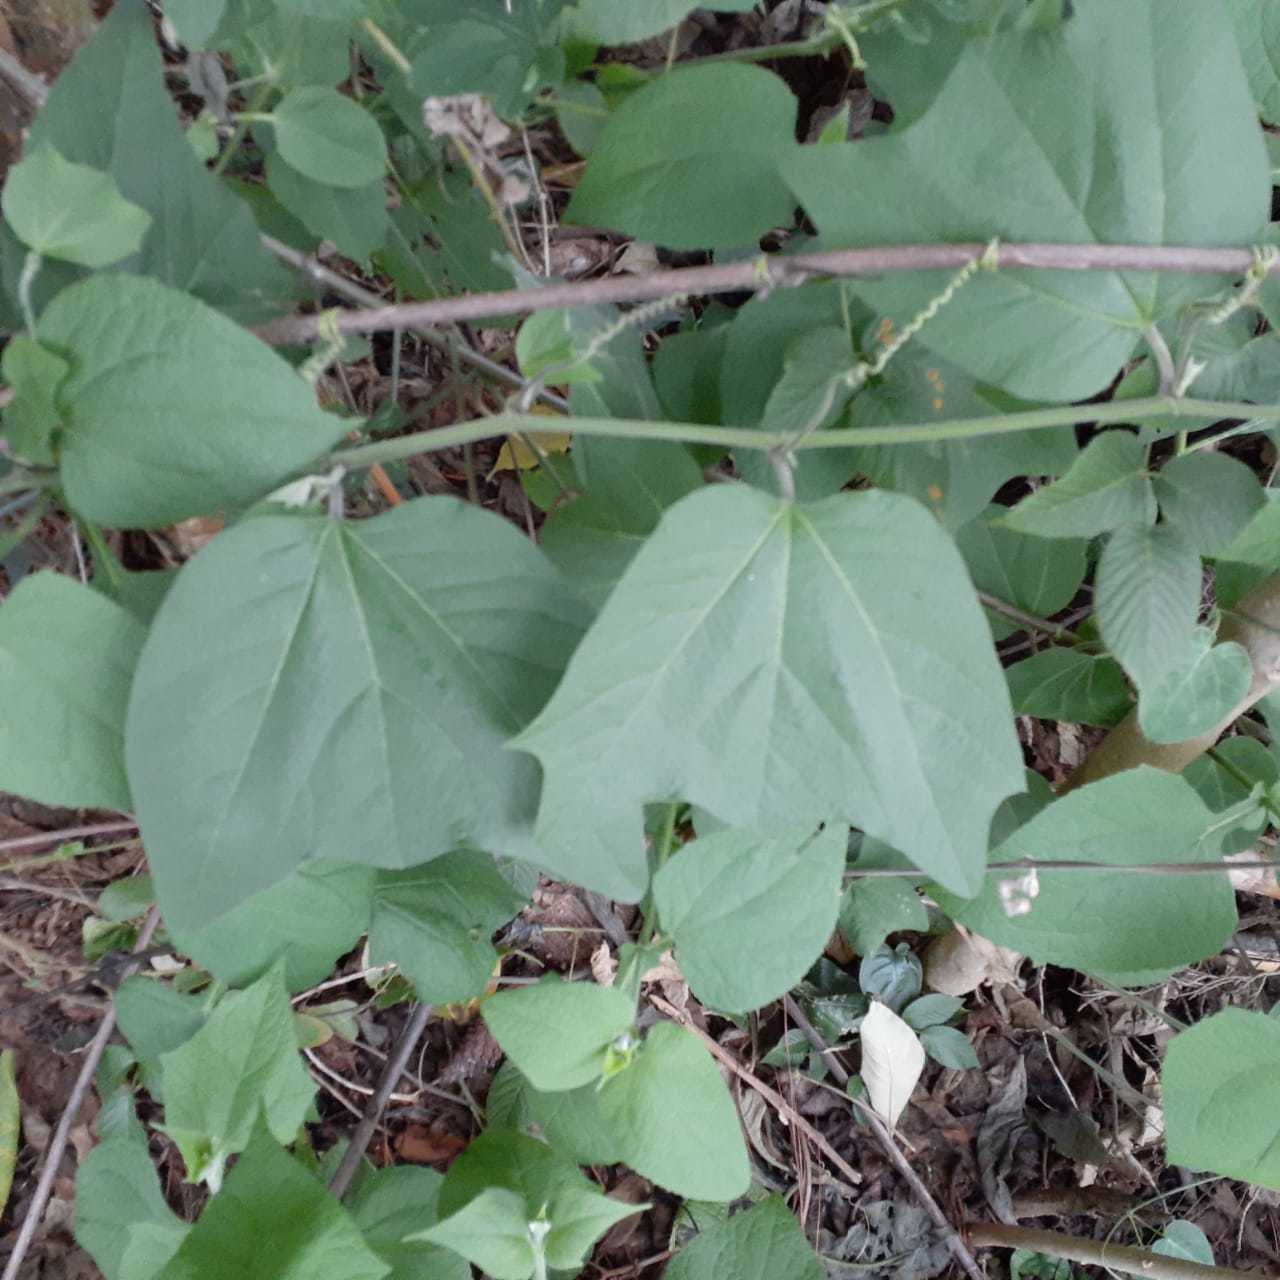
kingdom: Plantae
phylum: Tracheophyta
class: Magnoliopsida
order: Malpighiales
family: Passifloraceae
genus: Passiflora
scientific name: Passiflora sexflora
